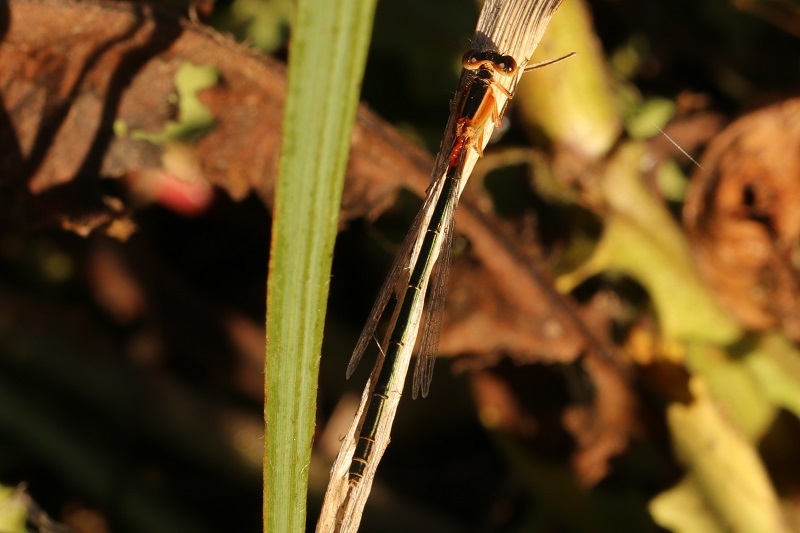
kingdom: Animalia
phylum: Arthropoda
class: Insecta
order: Odonata
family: Coenagrionidae
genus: Ischnura
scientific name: Ischnura senegalensis
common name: Tropical bluetail
